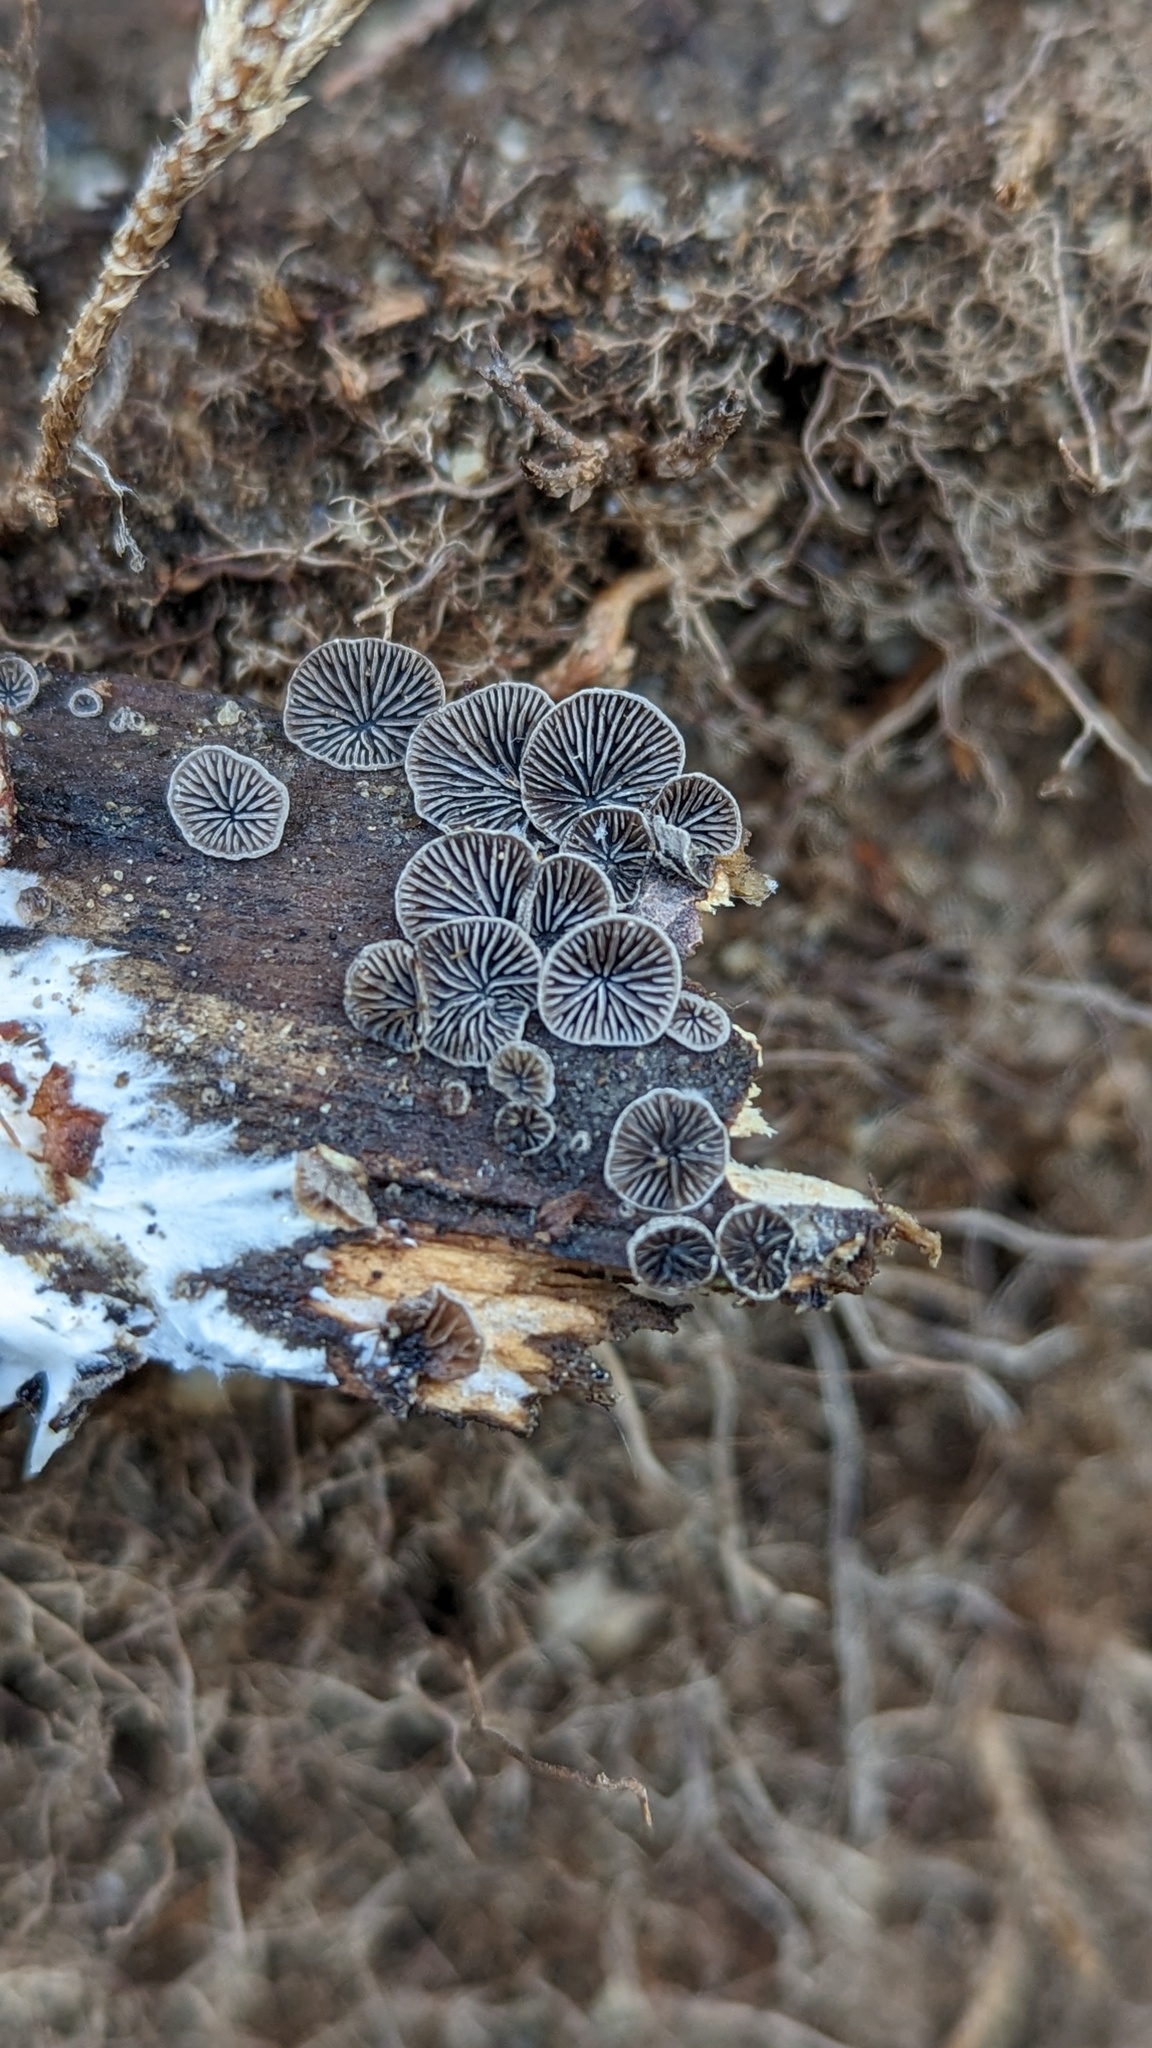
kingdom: Fungi
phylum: Basidiomycota
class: Agaricomycetes
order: Agaricales
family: Pleurotaceae
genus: Resupinatus
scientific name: Resupinatus applicatus
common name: Smoked oysterling
